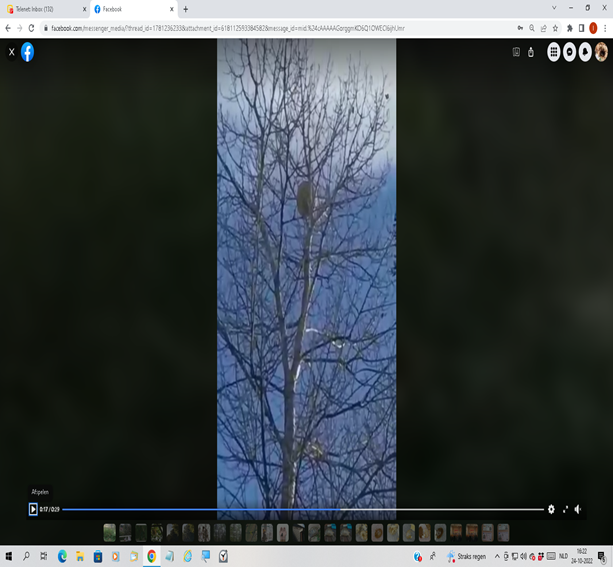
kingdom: Animalia
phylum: Arthropoda
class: Insecta
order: Hymenoptera
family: Vespidae
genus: Vespa
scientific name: Vespa velutina
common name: Asian hornet
